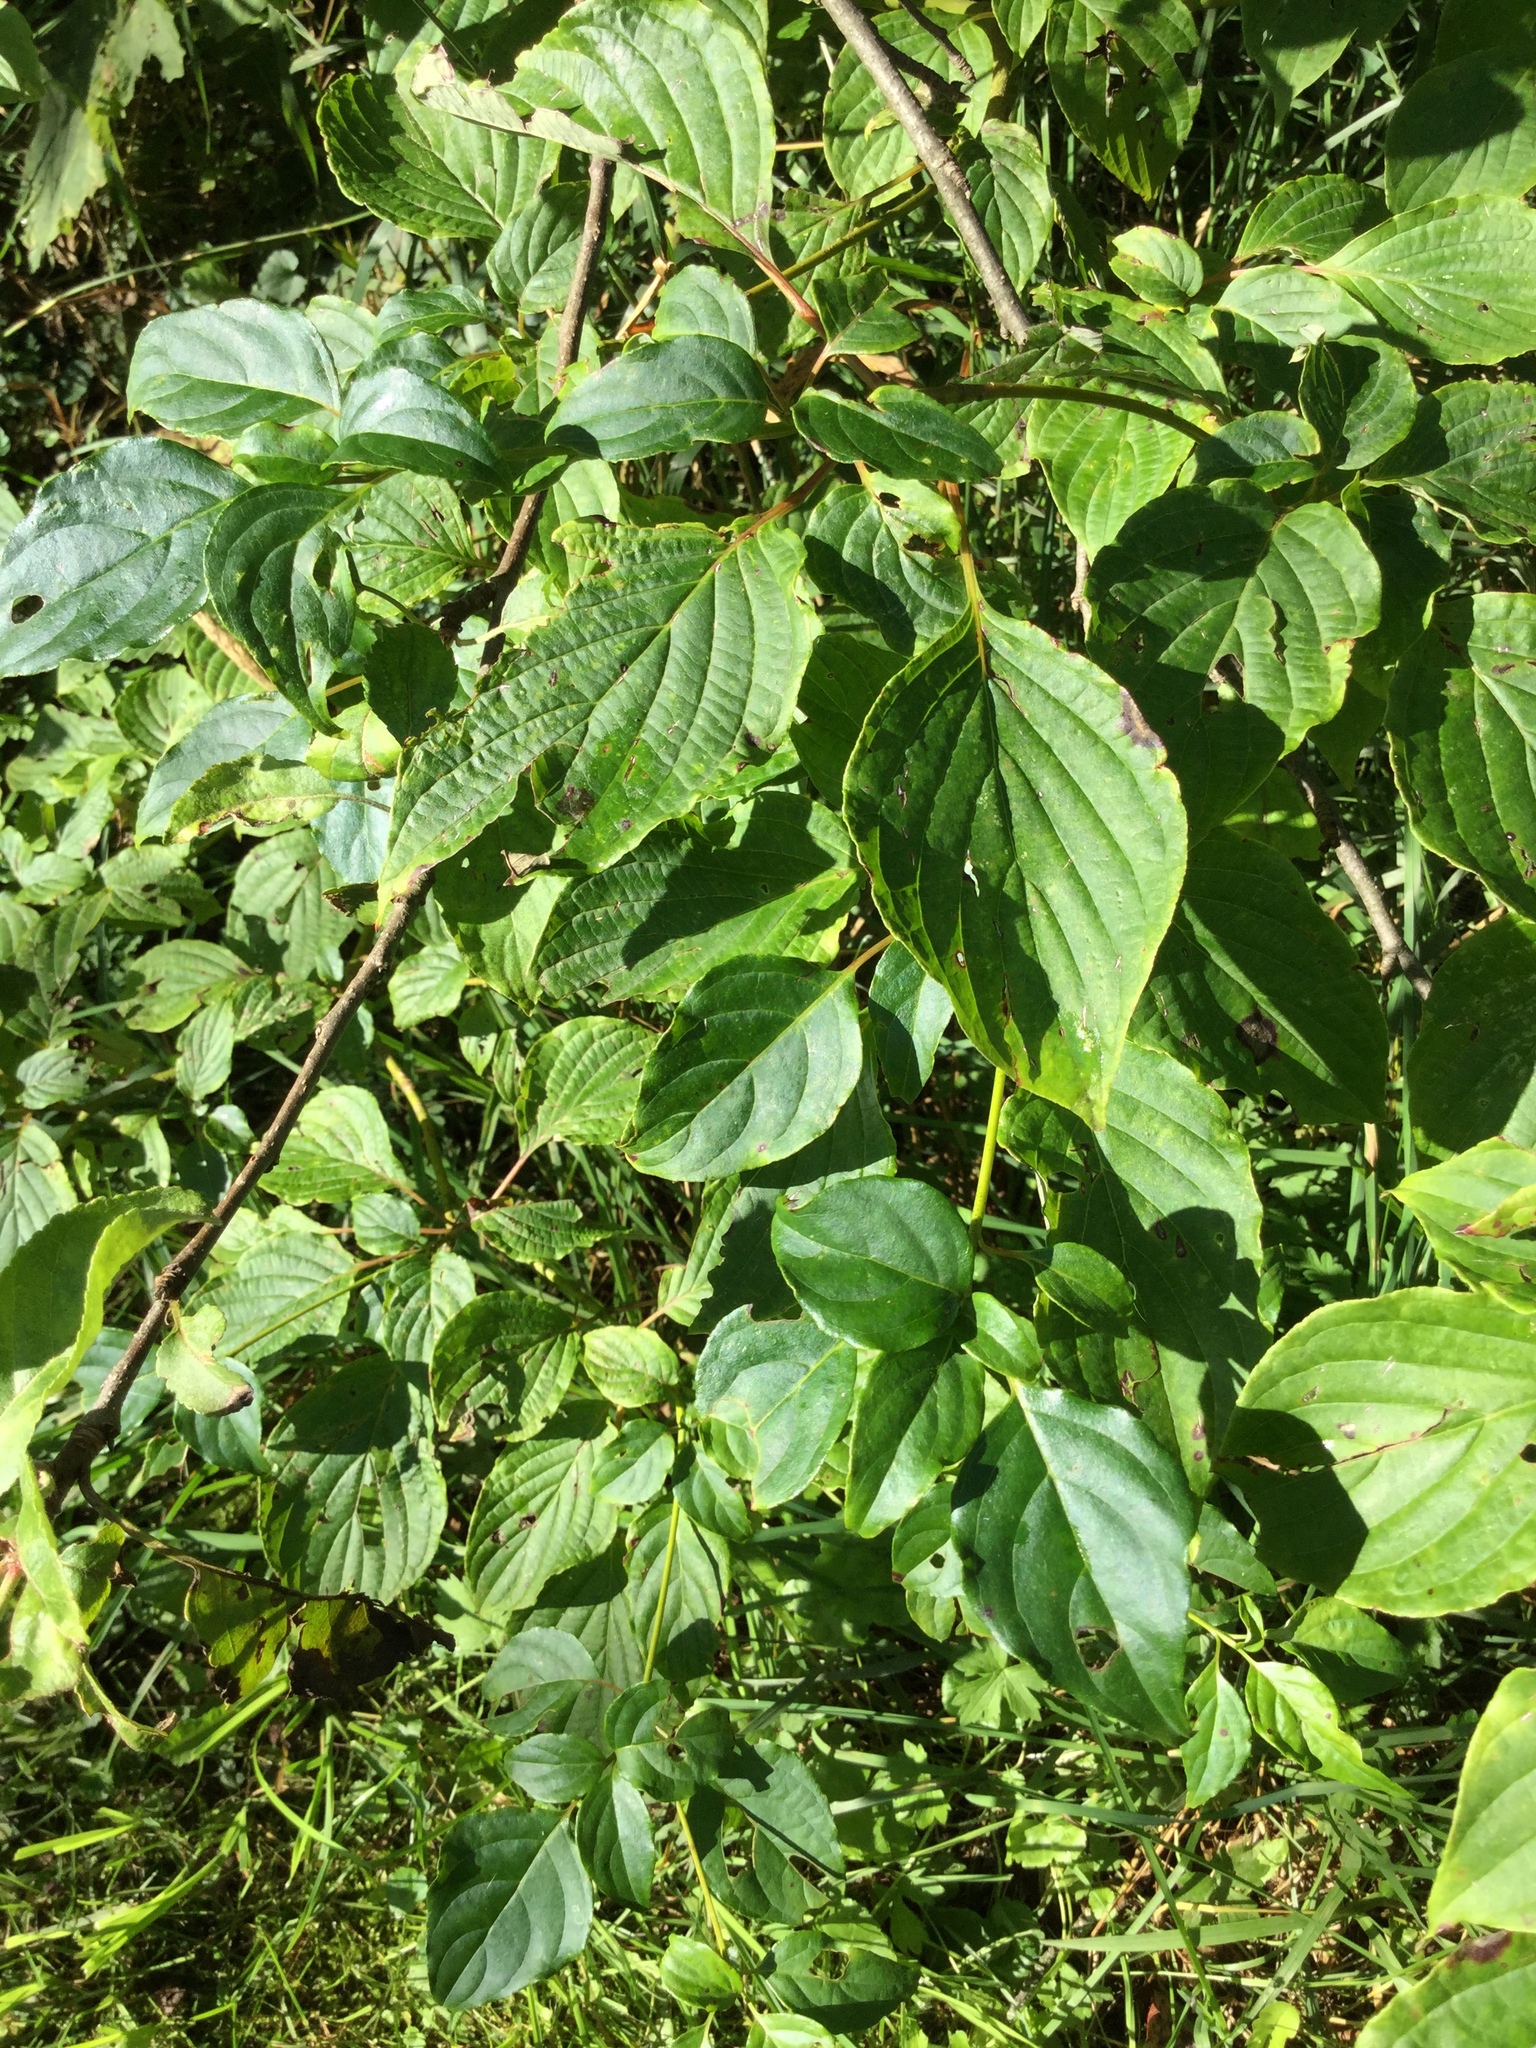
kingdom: Plantae
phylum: Tracheophyta
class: Magnoliopsida
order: Cornales
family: Cornaceae
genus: Cornus
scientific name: Cornus alternifolia
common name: Pagoda dogwood
